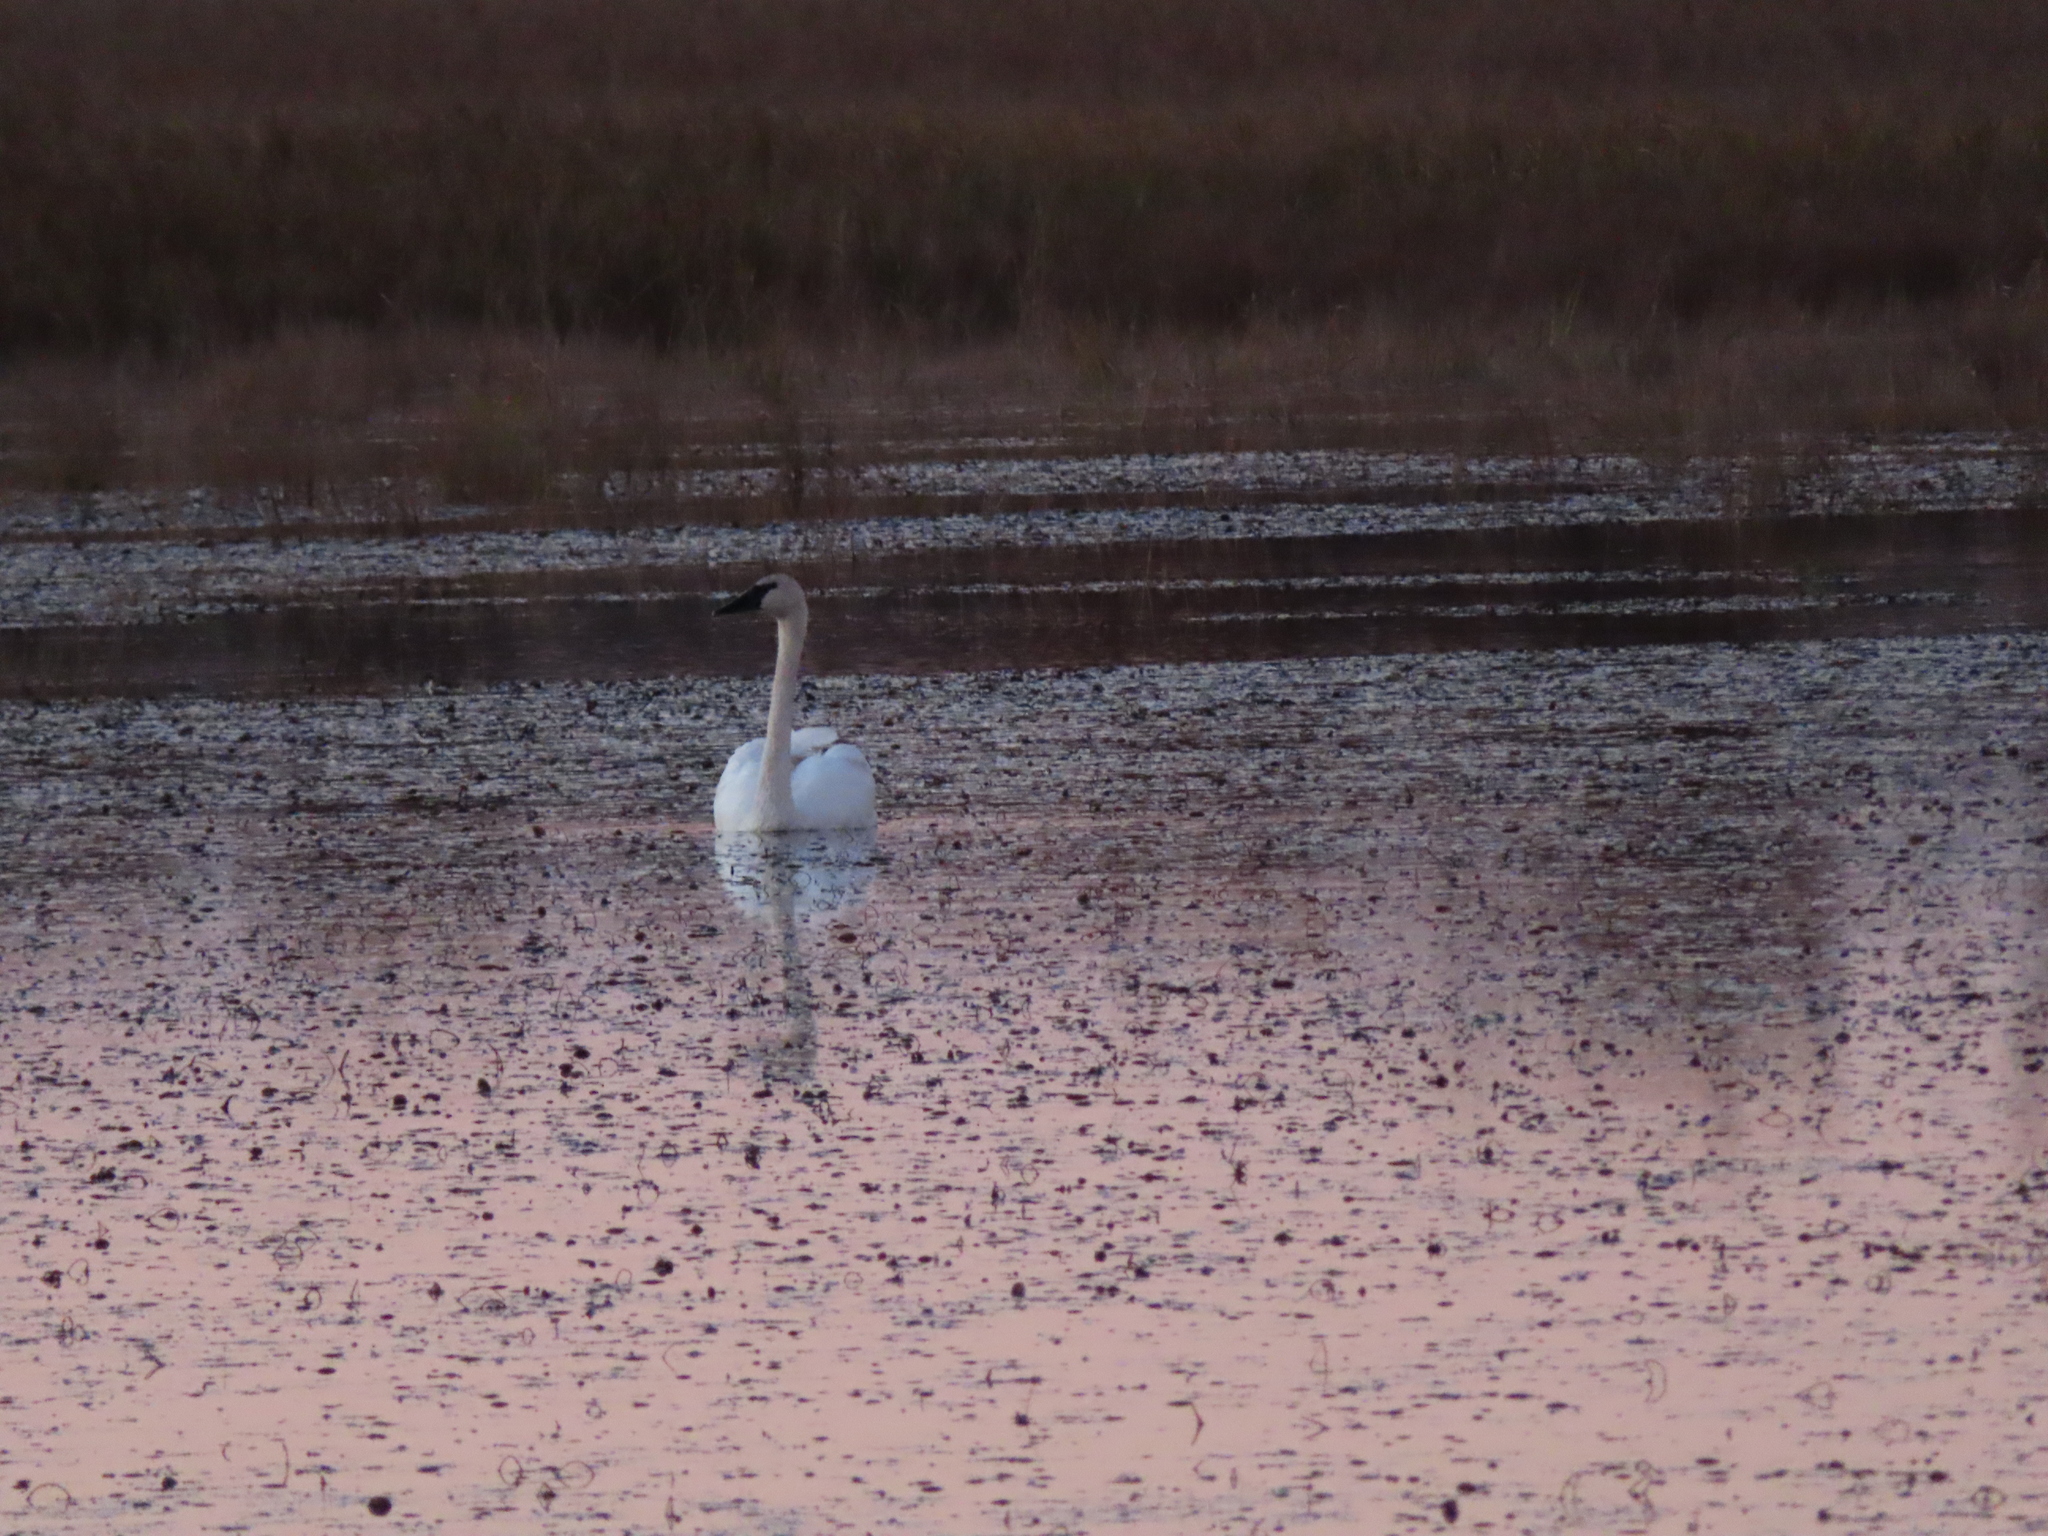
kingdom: Animalia
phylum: Chordata
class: Aves
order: Anseriformes
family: Anatidae
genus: Cygnus
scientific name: Cygnus buccinator
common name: Trumpeter swan
